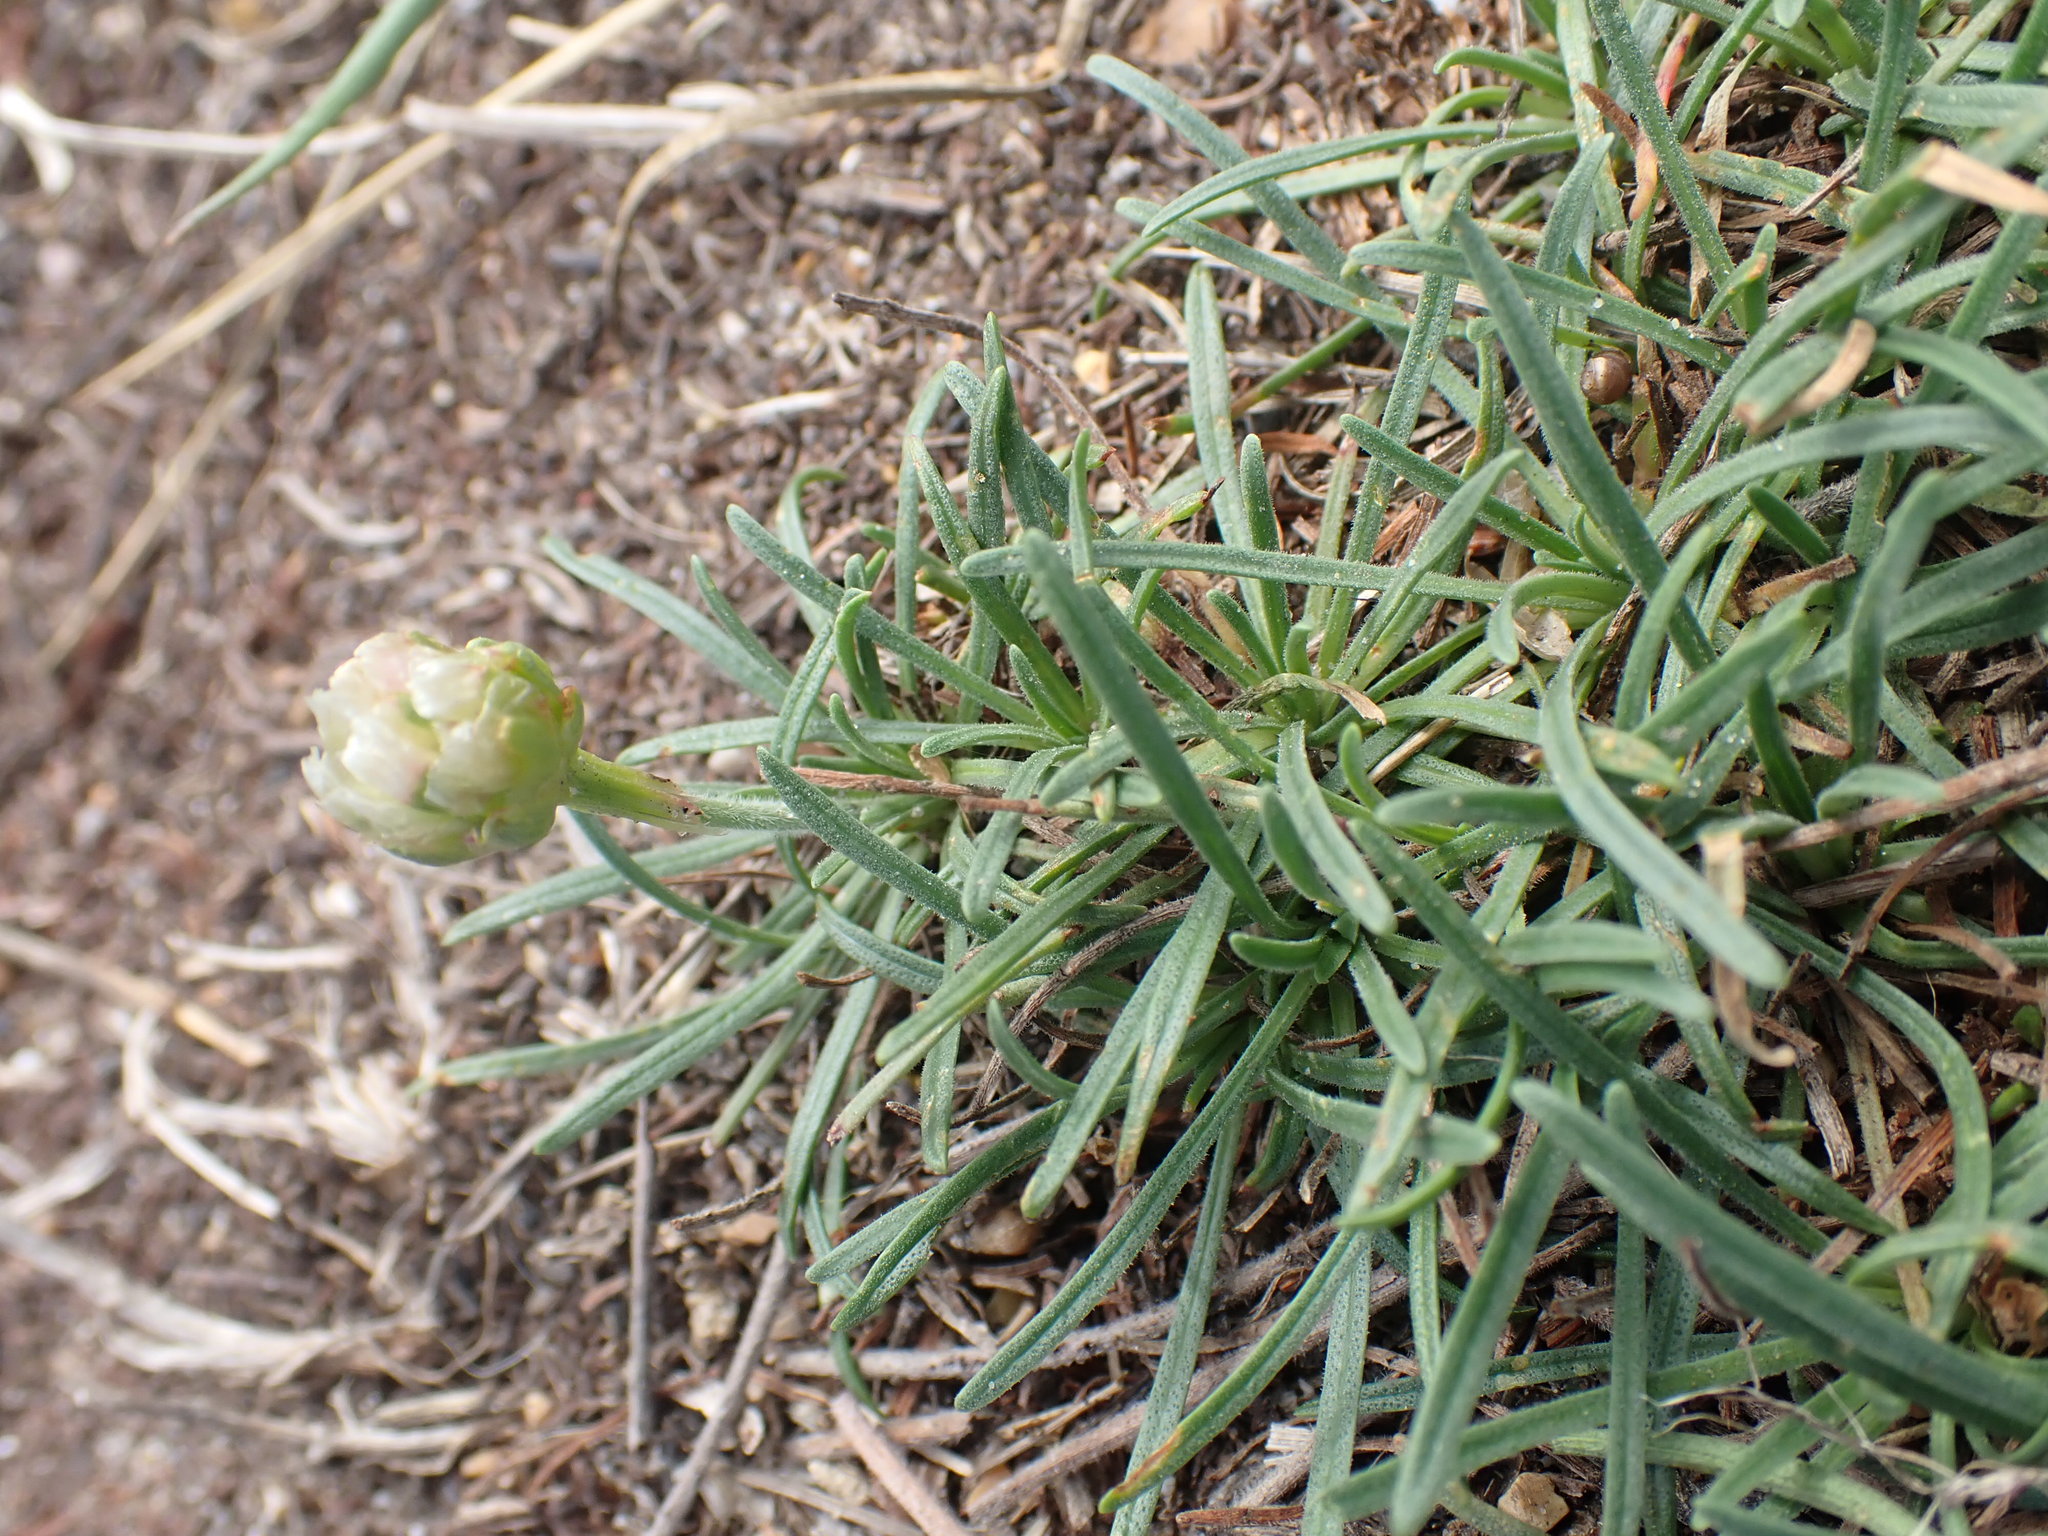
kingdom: Plantae
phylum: Tracheophyta
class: Magnoliopsida
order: Caryophyllales
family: Plumbaginaceae
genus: Armeria
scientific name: Armeria maritima
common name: Thrift
